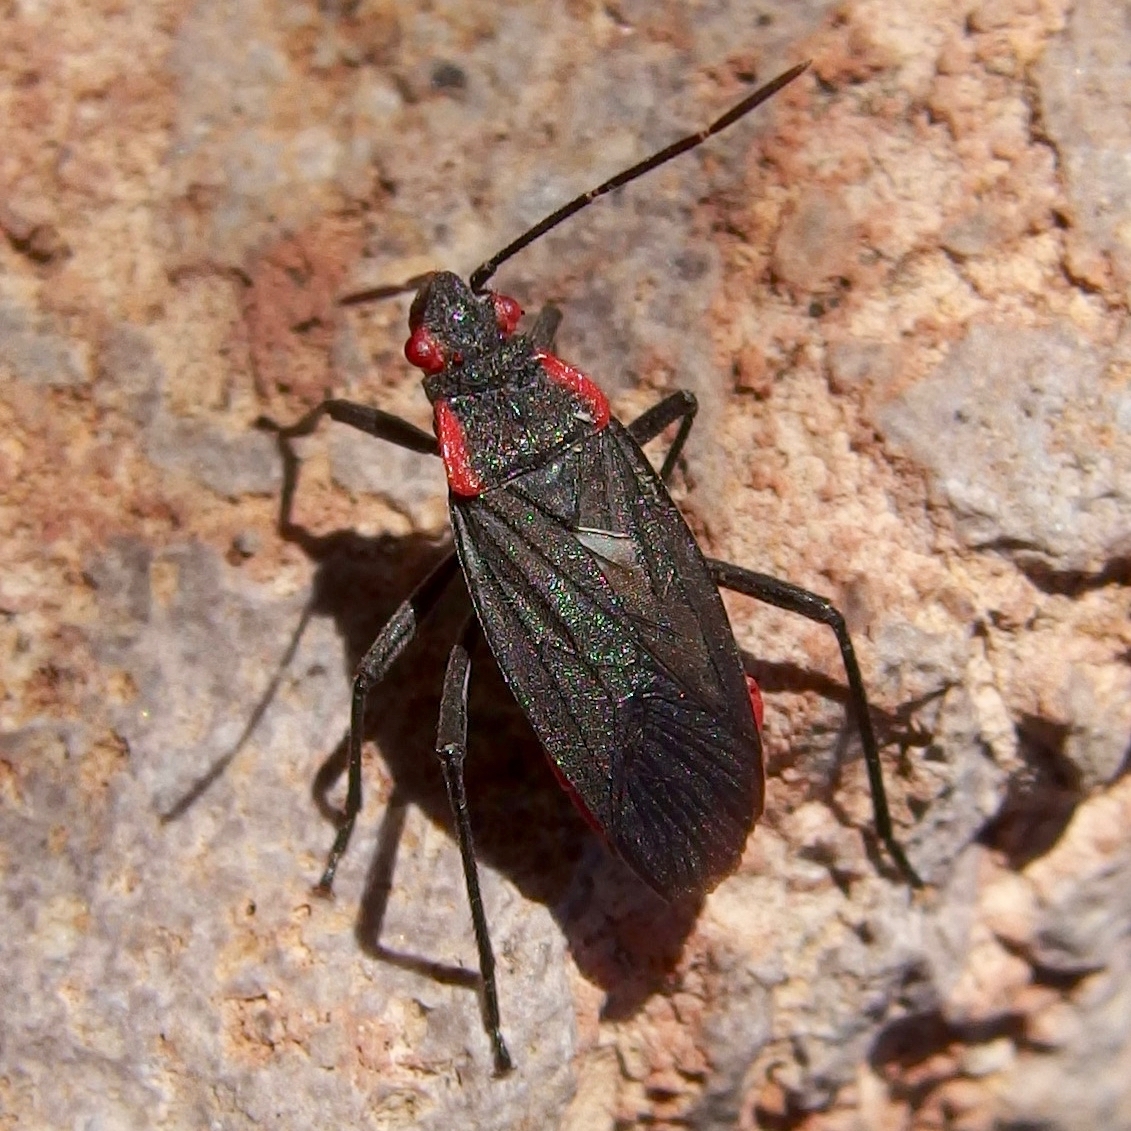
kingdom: Animalia
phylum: Arthropoda
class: Insecta
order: Hemiptera
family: Rhopalidae
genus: Jadera
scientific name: Jadera haematoloma
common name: Red-shouldered bug
